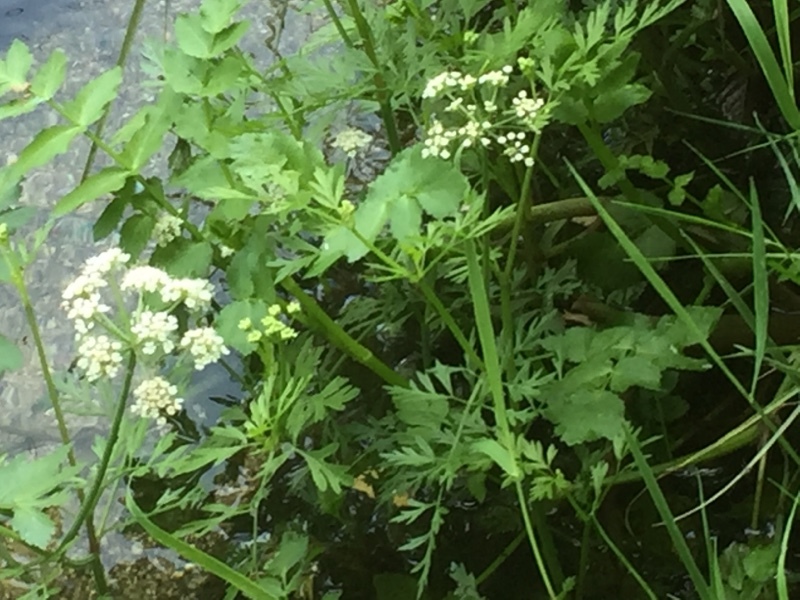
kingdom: Plantae
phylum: Tracheophyta
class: Magnoliopsida
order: Apiales
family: Apiaceae
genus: Helosciadium
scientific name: Helosciadium nodiflorum
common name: Fool's-watercress
